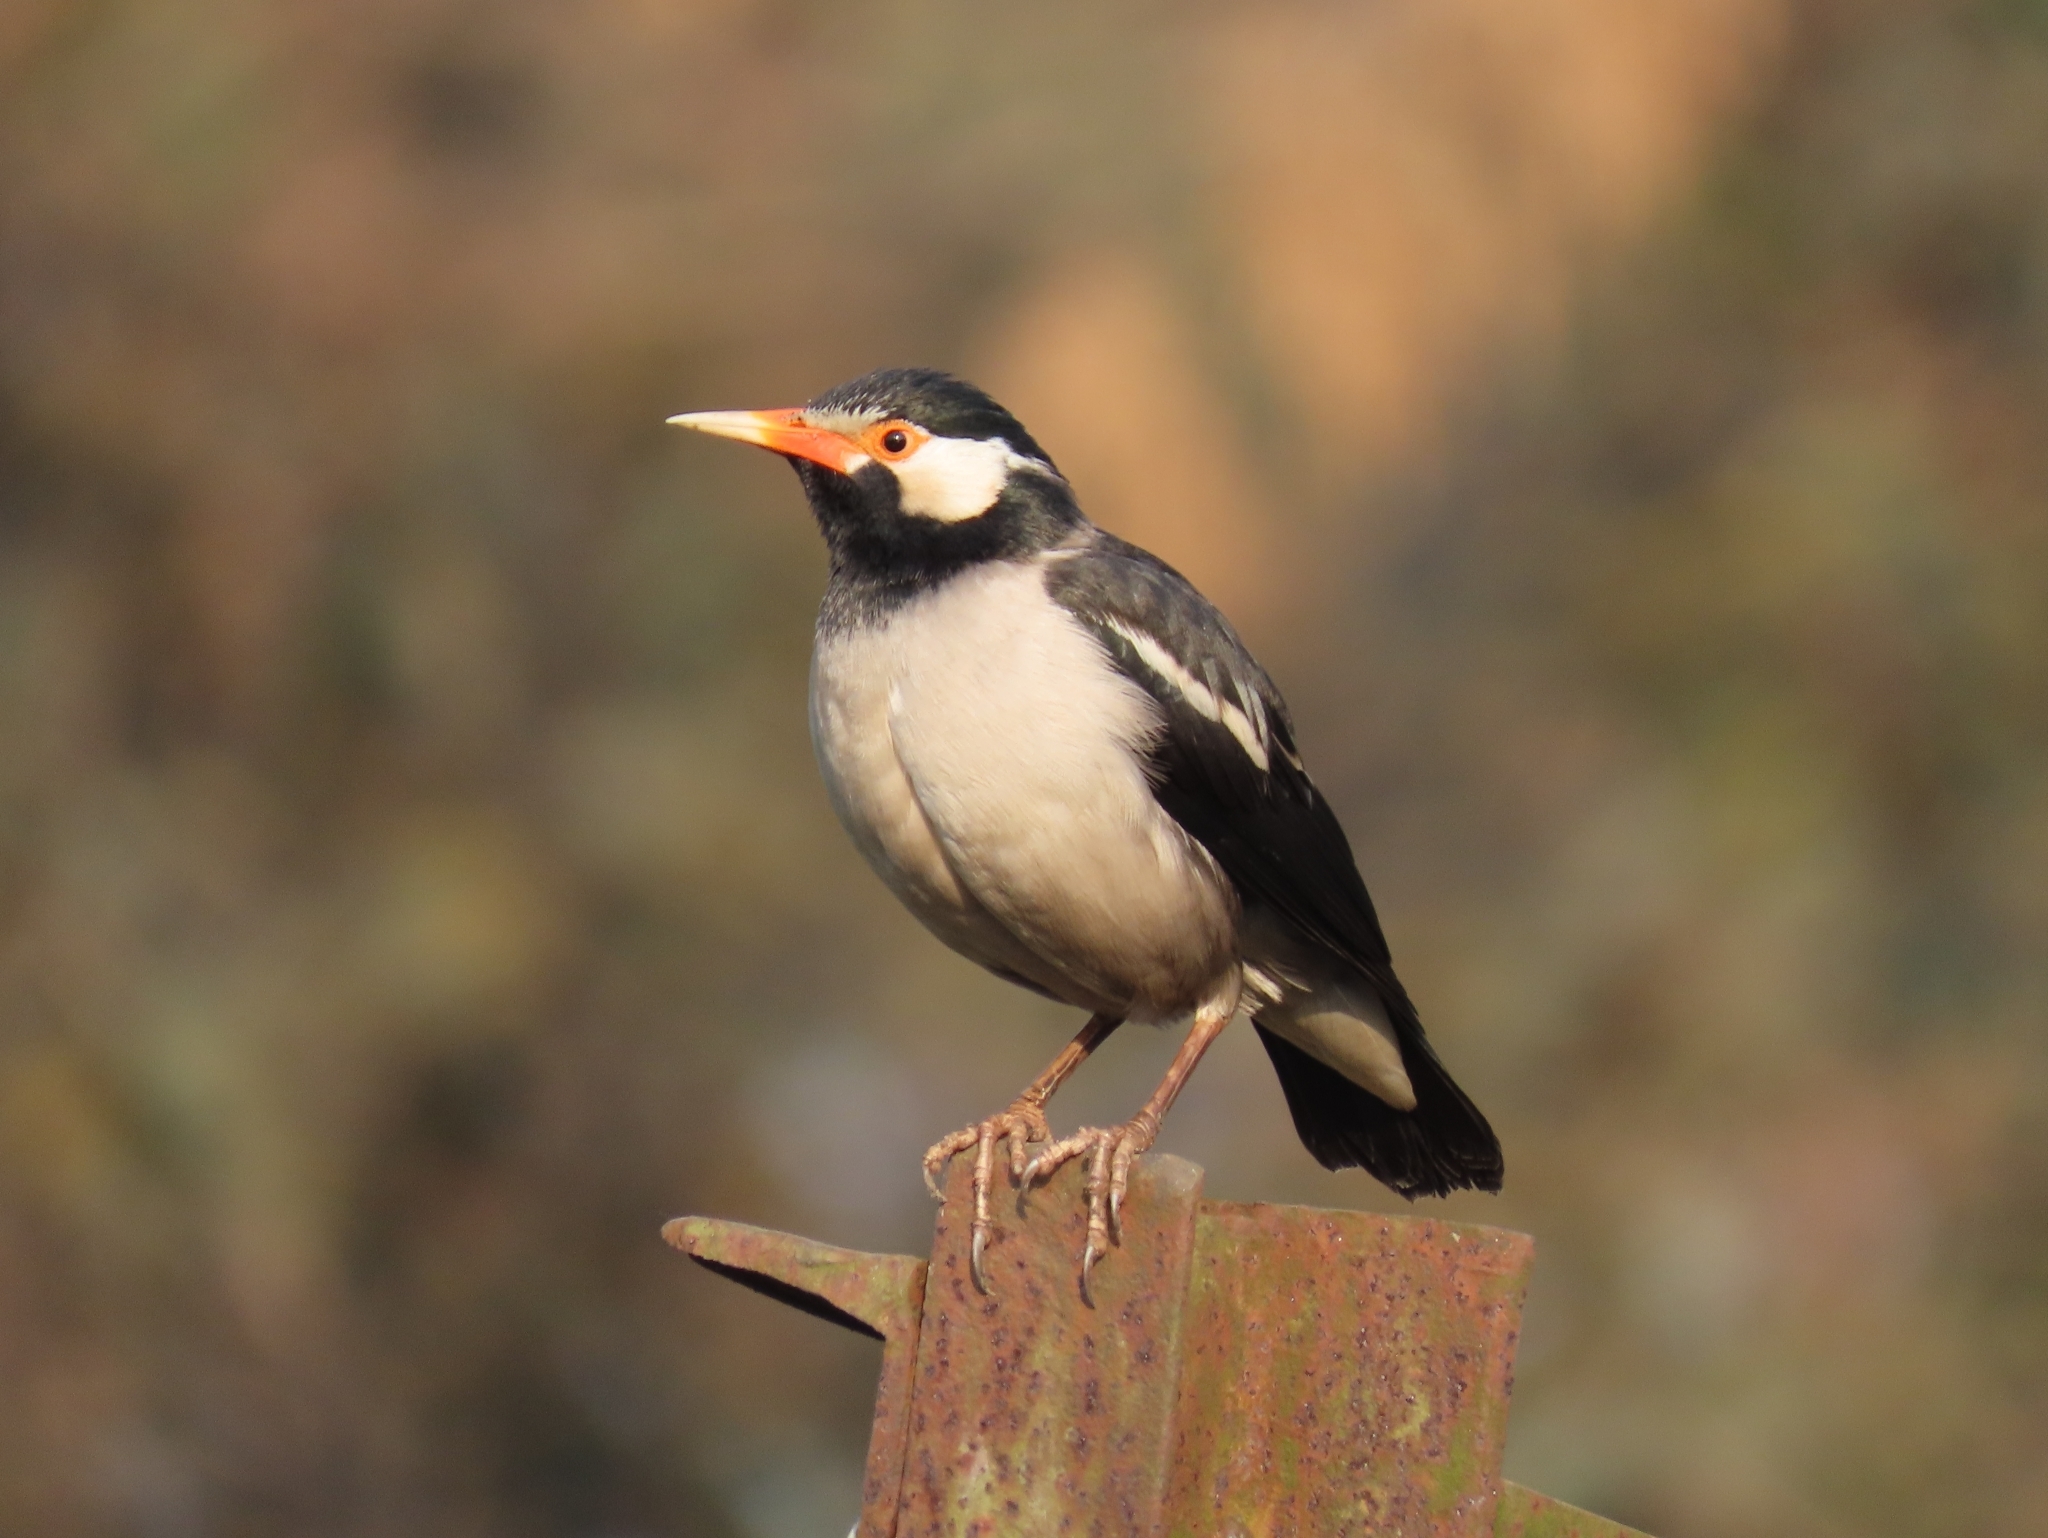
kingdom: Animalia
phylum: Chordata
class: Aves
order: Passeriformes
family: Sturnidae
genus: Gracupica
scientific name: Gracupica contra
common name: Pied myna
